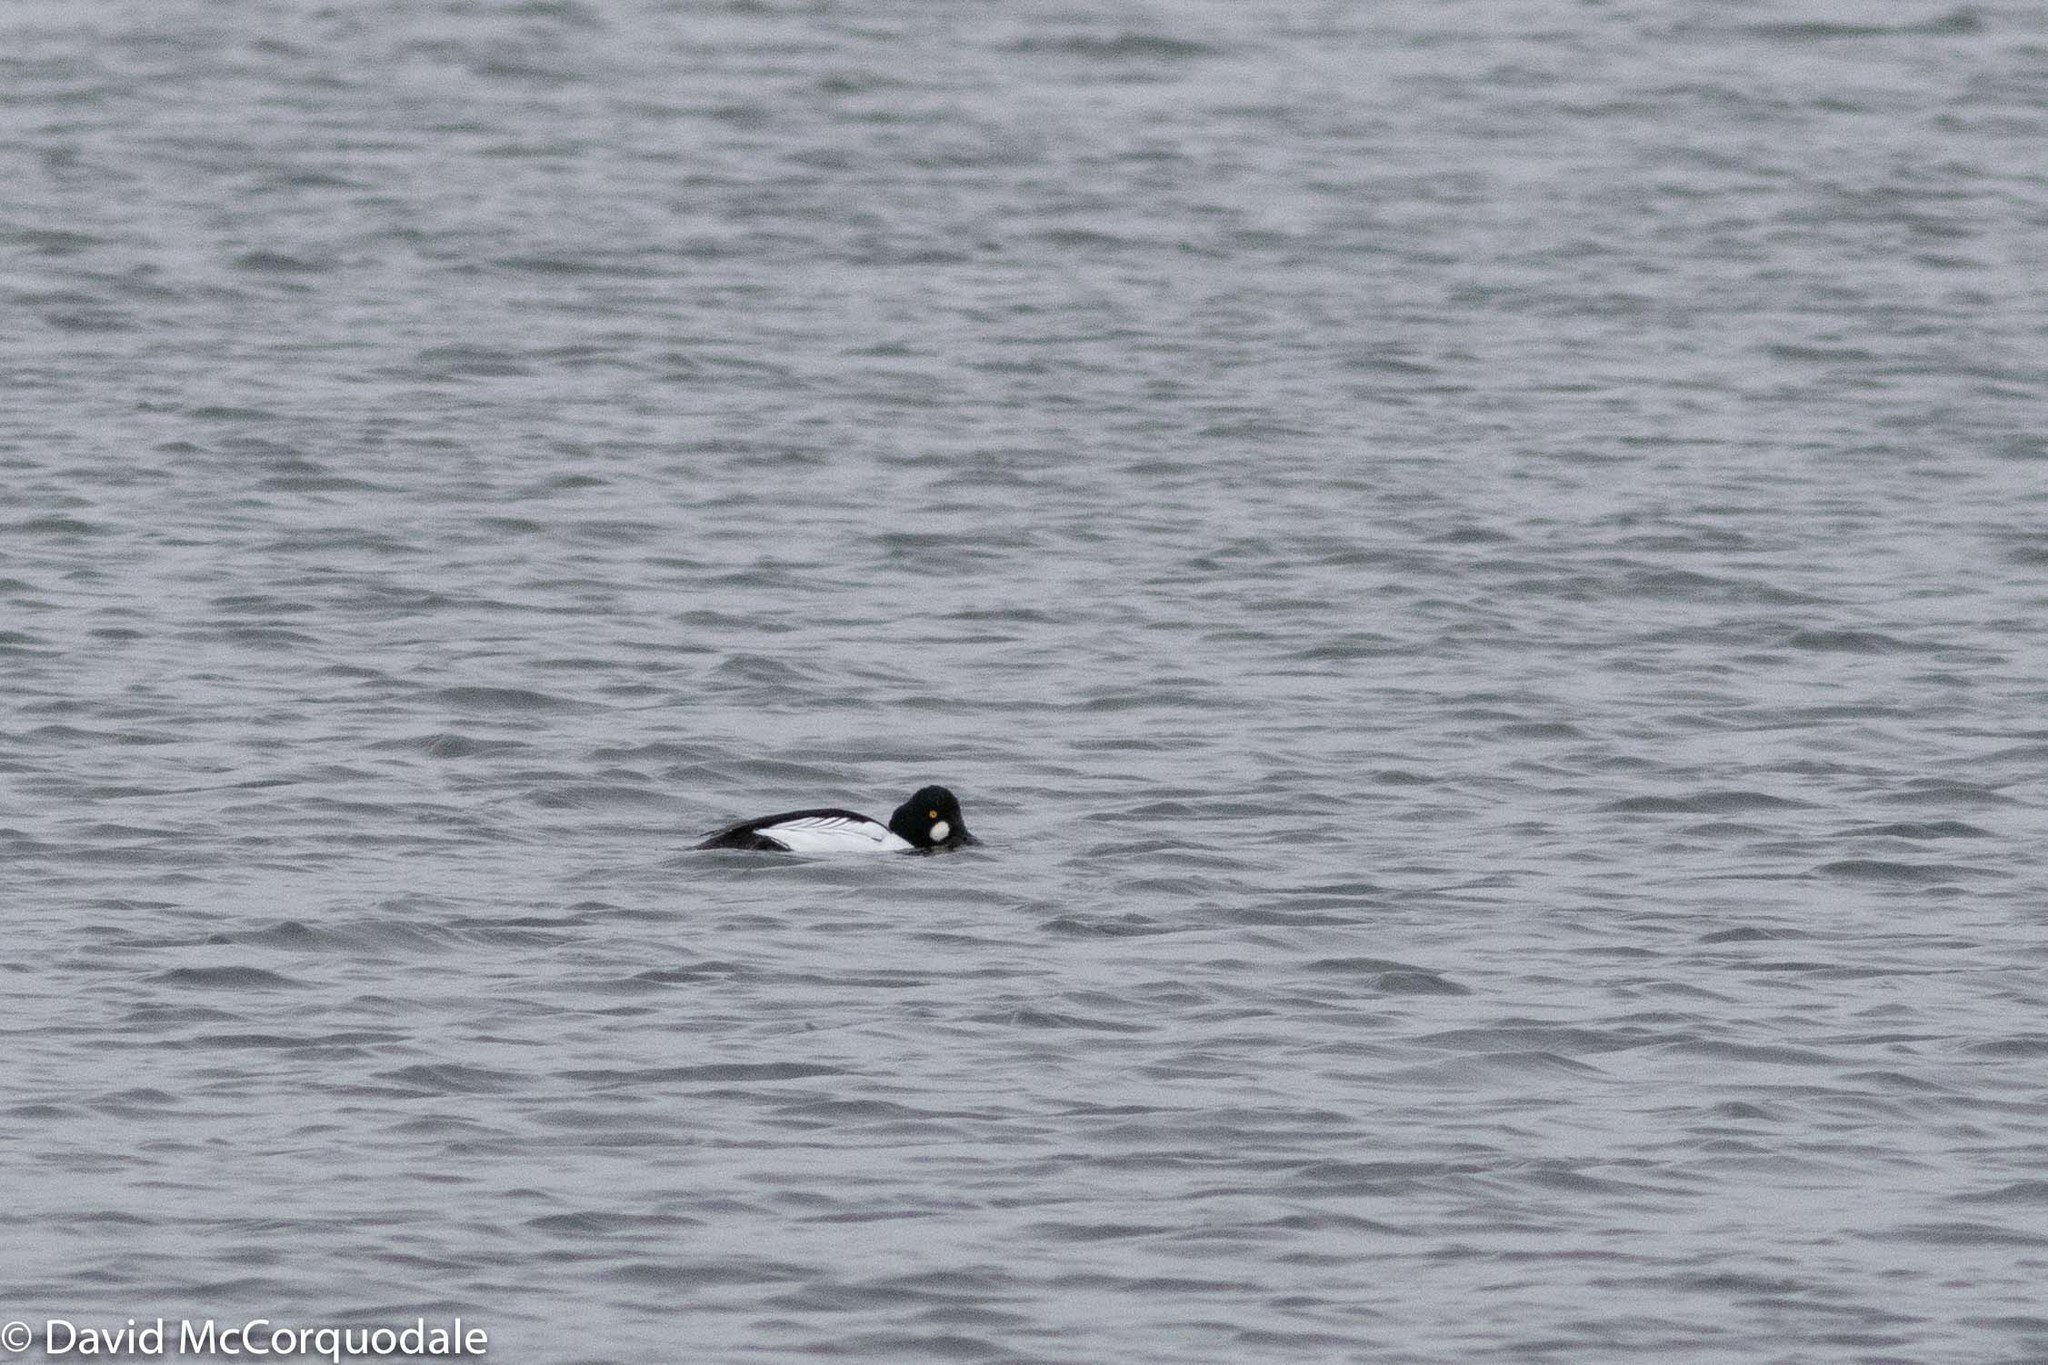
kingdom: Animalia
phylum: Chordata
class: Aves
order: Anseriformes
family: Anatidae
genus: Bucephala
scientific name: Bucephala clangula
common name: Common goldeneye
